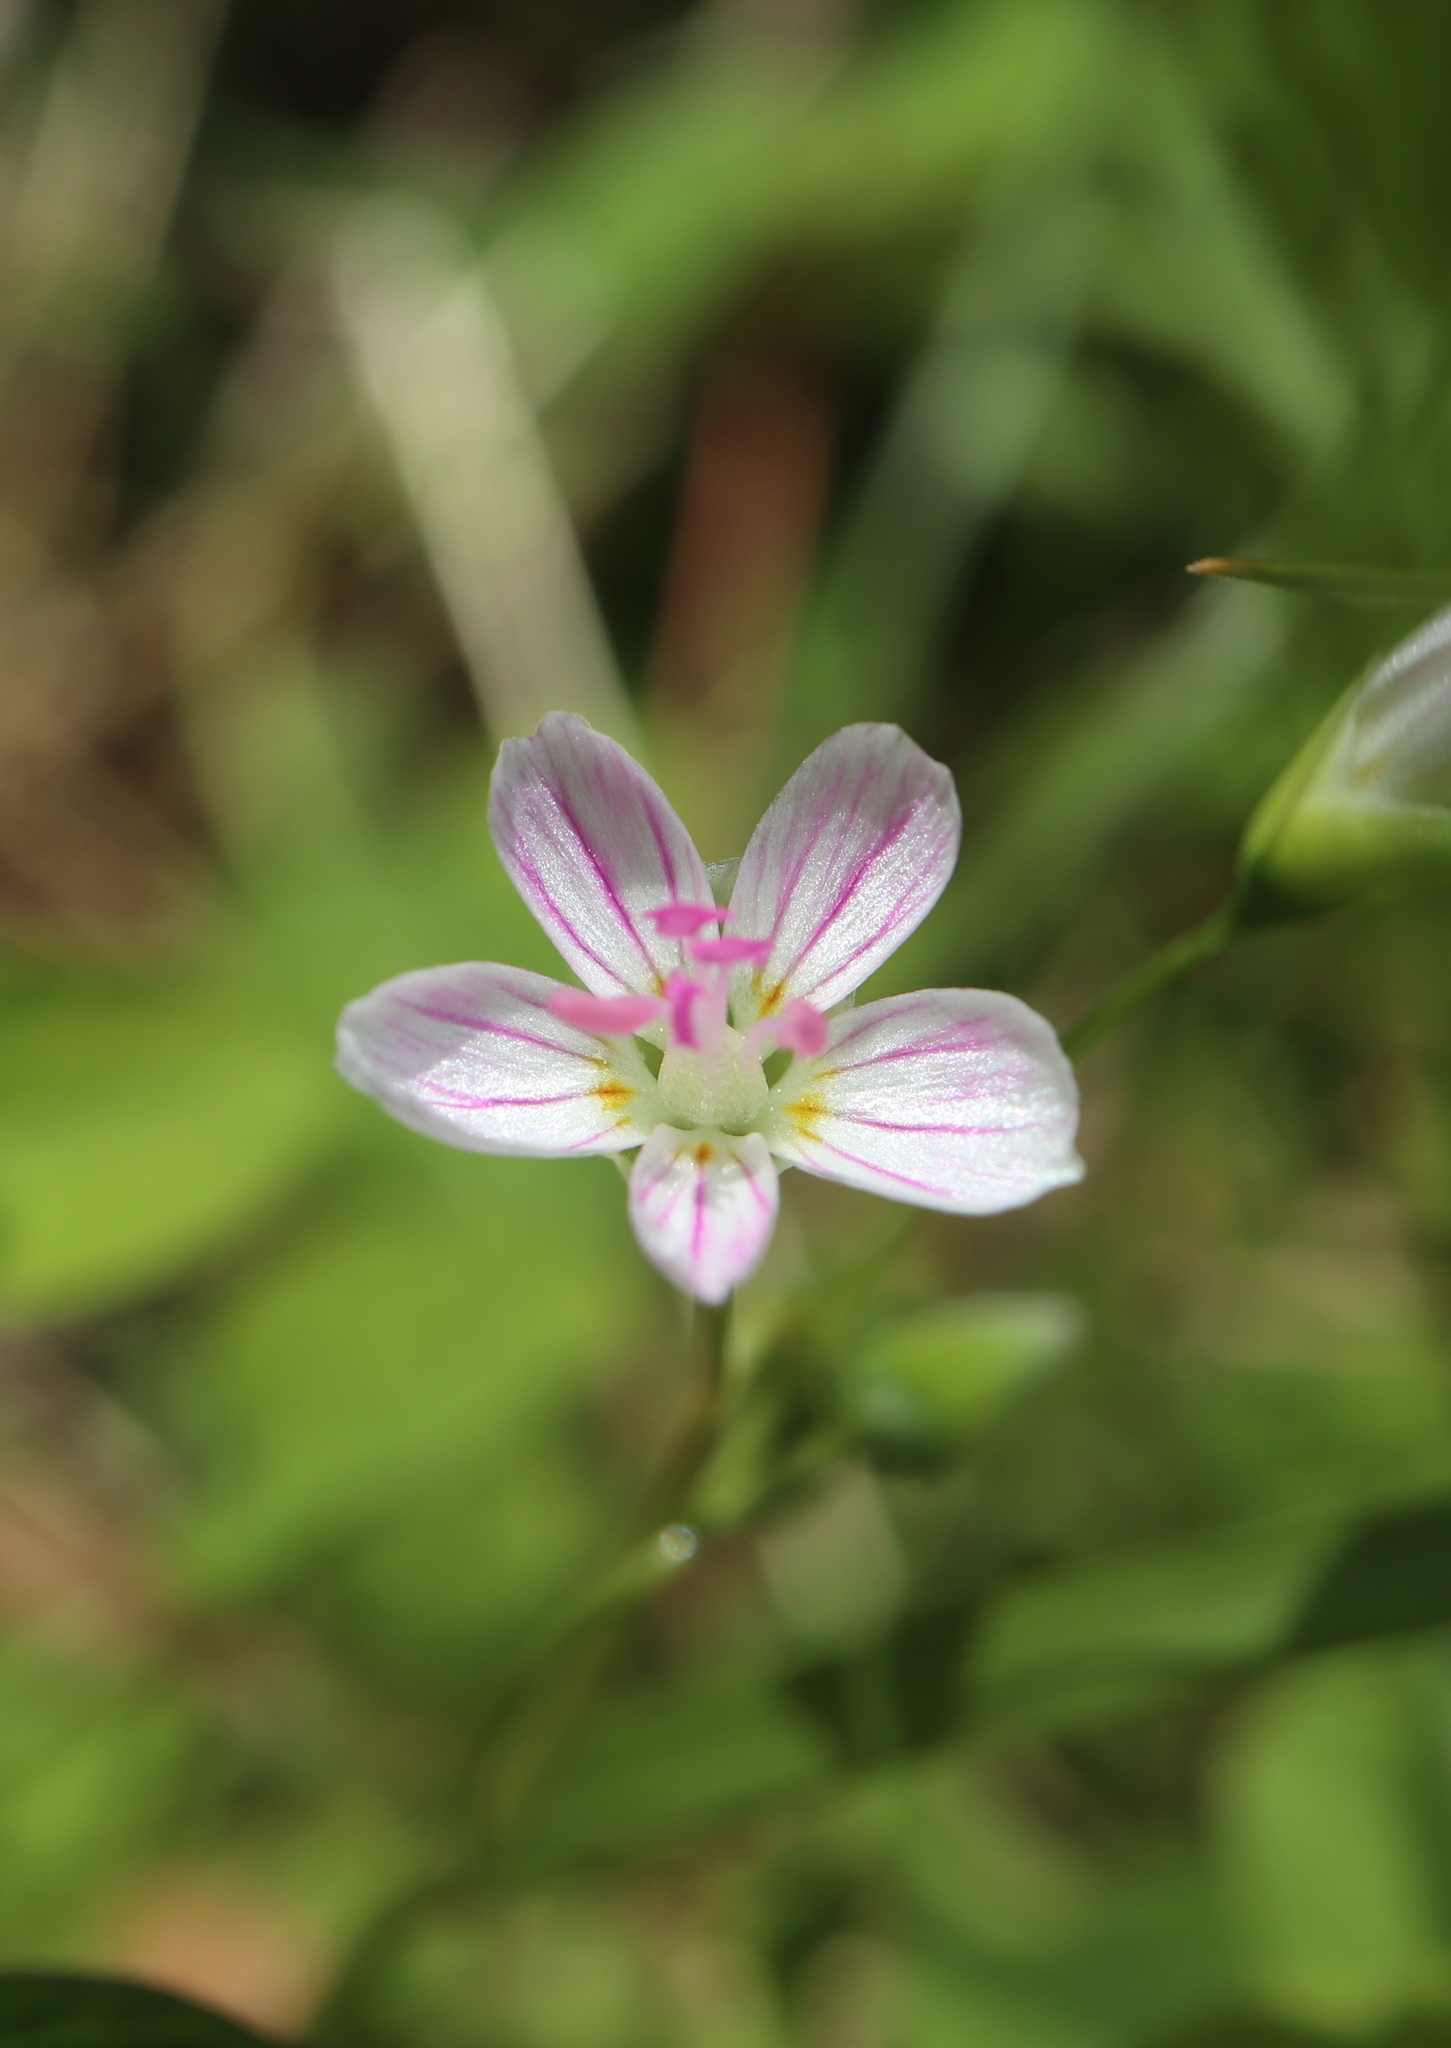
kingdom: Plantae
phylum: Tracheophyta
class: Magnoliopsida
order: Caryophyllales
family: Montiaceae
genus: Claytonia
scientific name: Claytonia virginica
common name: Virginia springbeauty
